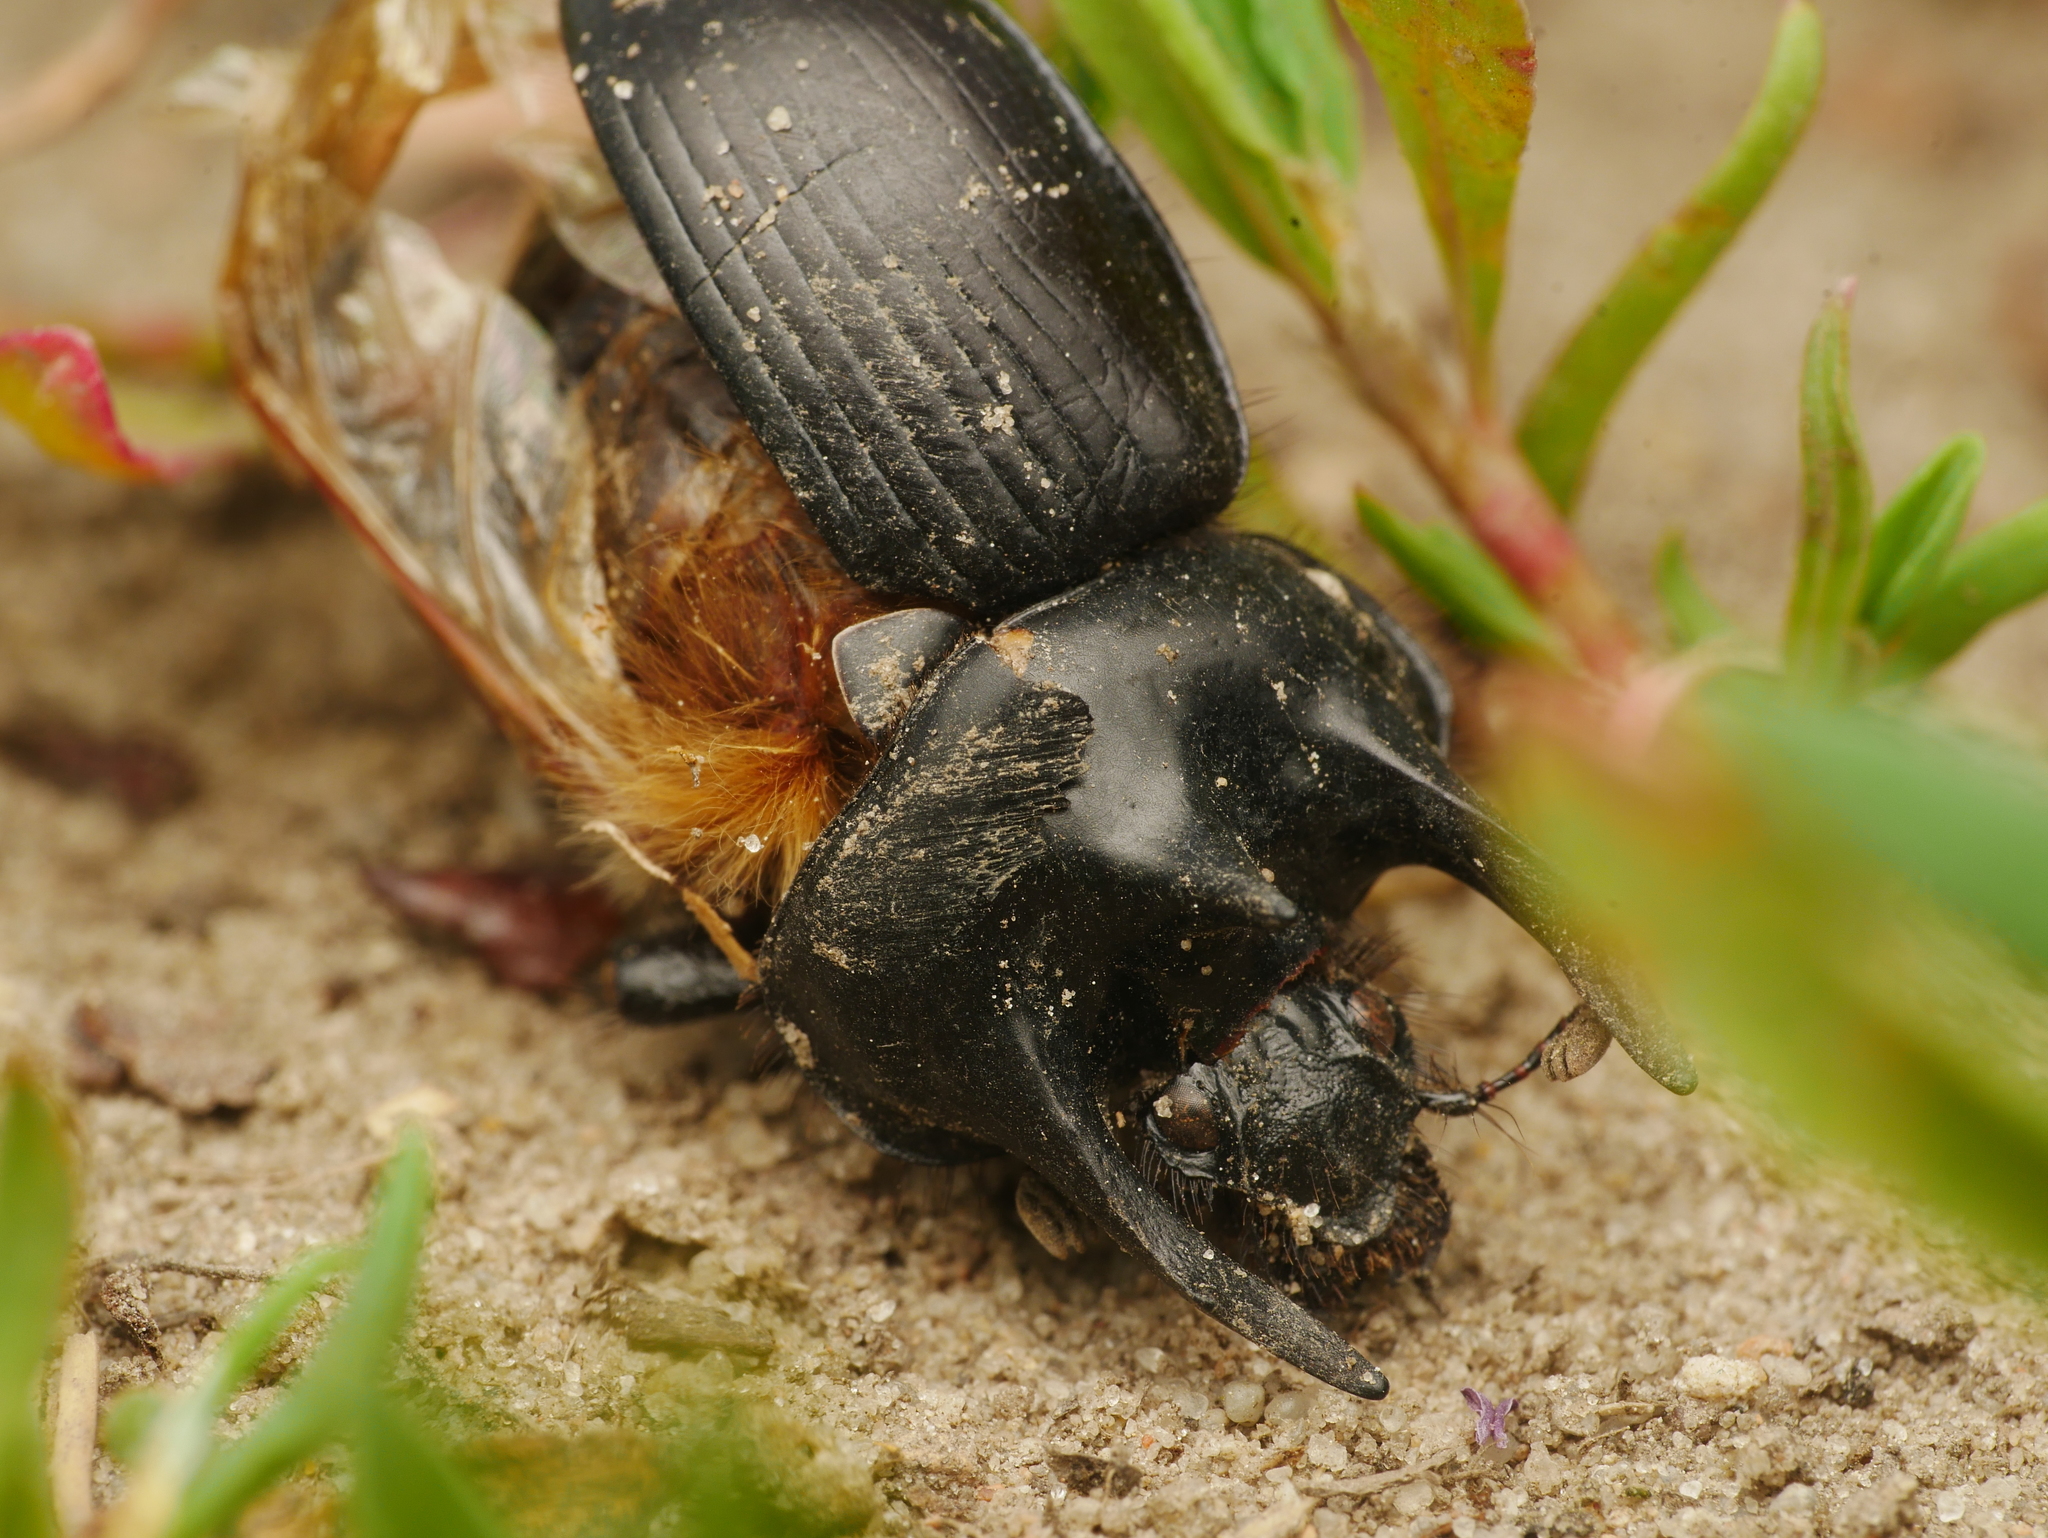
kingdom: Animalia
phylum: Arthropoda
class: Insecta
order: Coleoptera
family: Geotrupidae
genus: Typhaeus
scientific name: Typhaeus typhoeus
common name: Minotaur beetle
